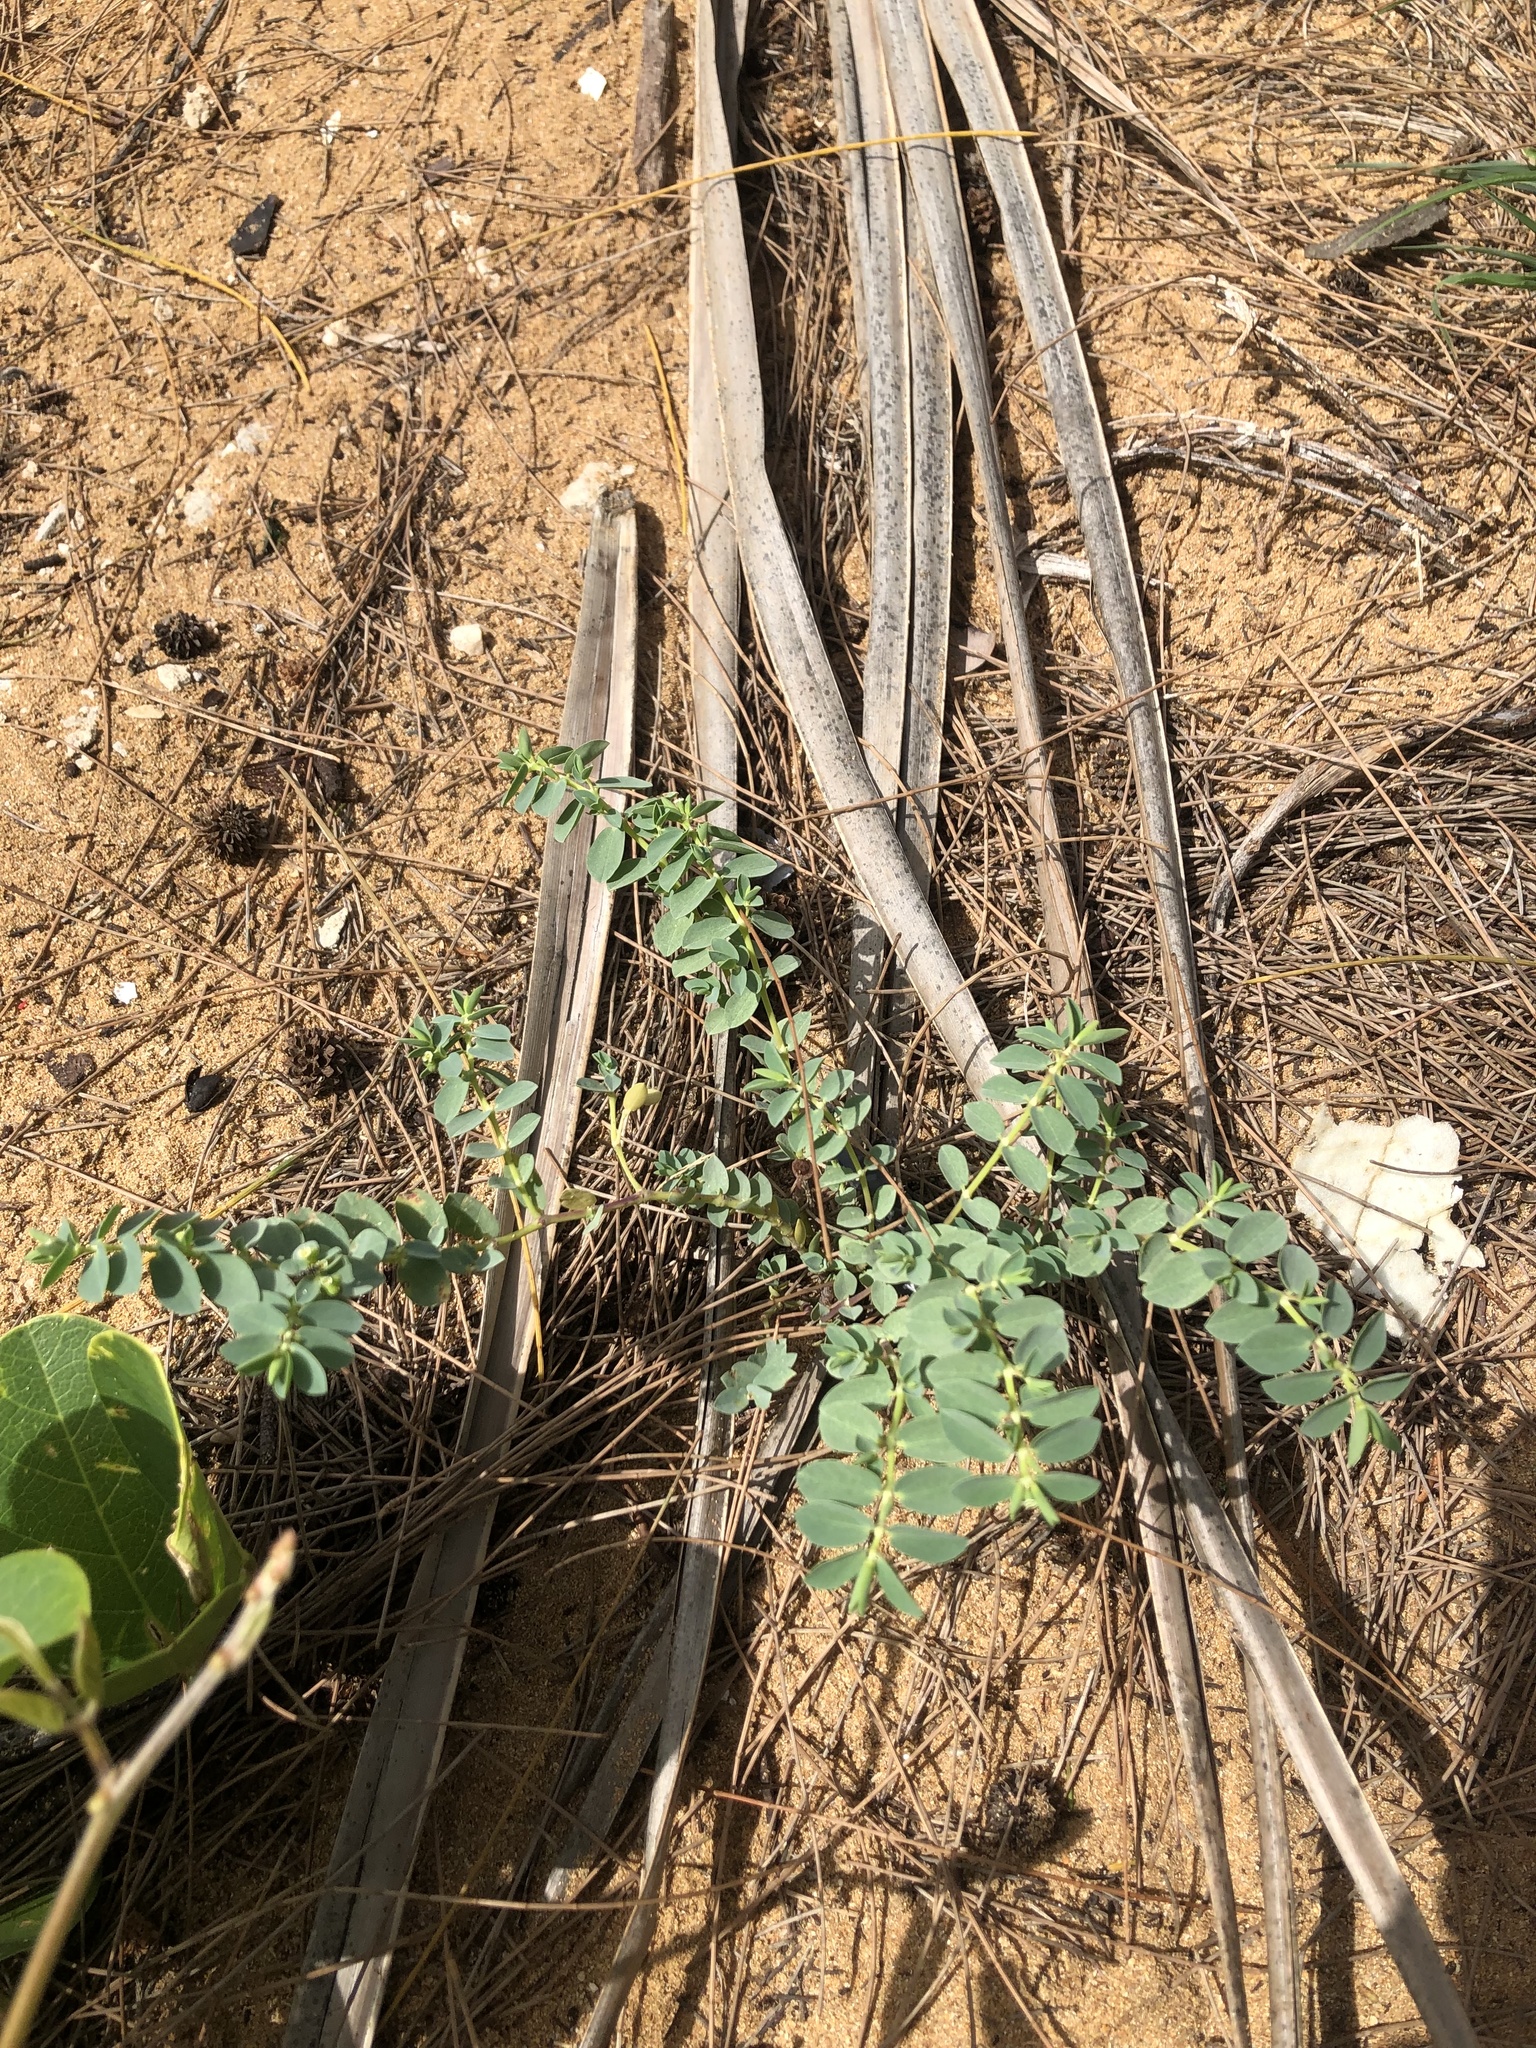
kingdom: Plantae
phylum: Tracheophyta
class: Magnoliopsida
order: Malpighiales
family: Euphorbiaceae
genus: Euphorbia
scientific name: Euphorbia mesembryanthemifolia
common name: Coastal beach sandmat
